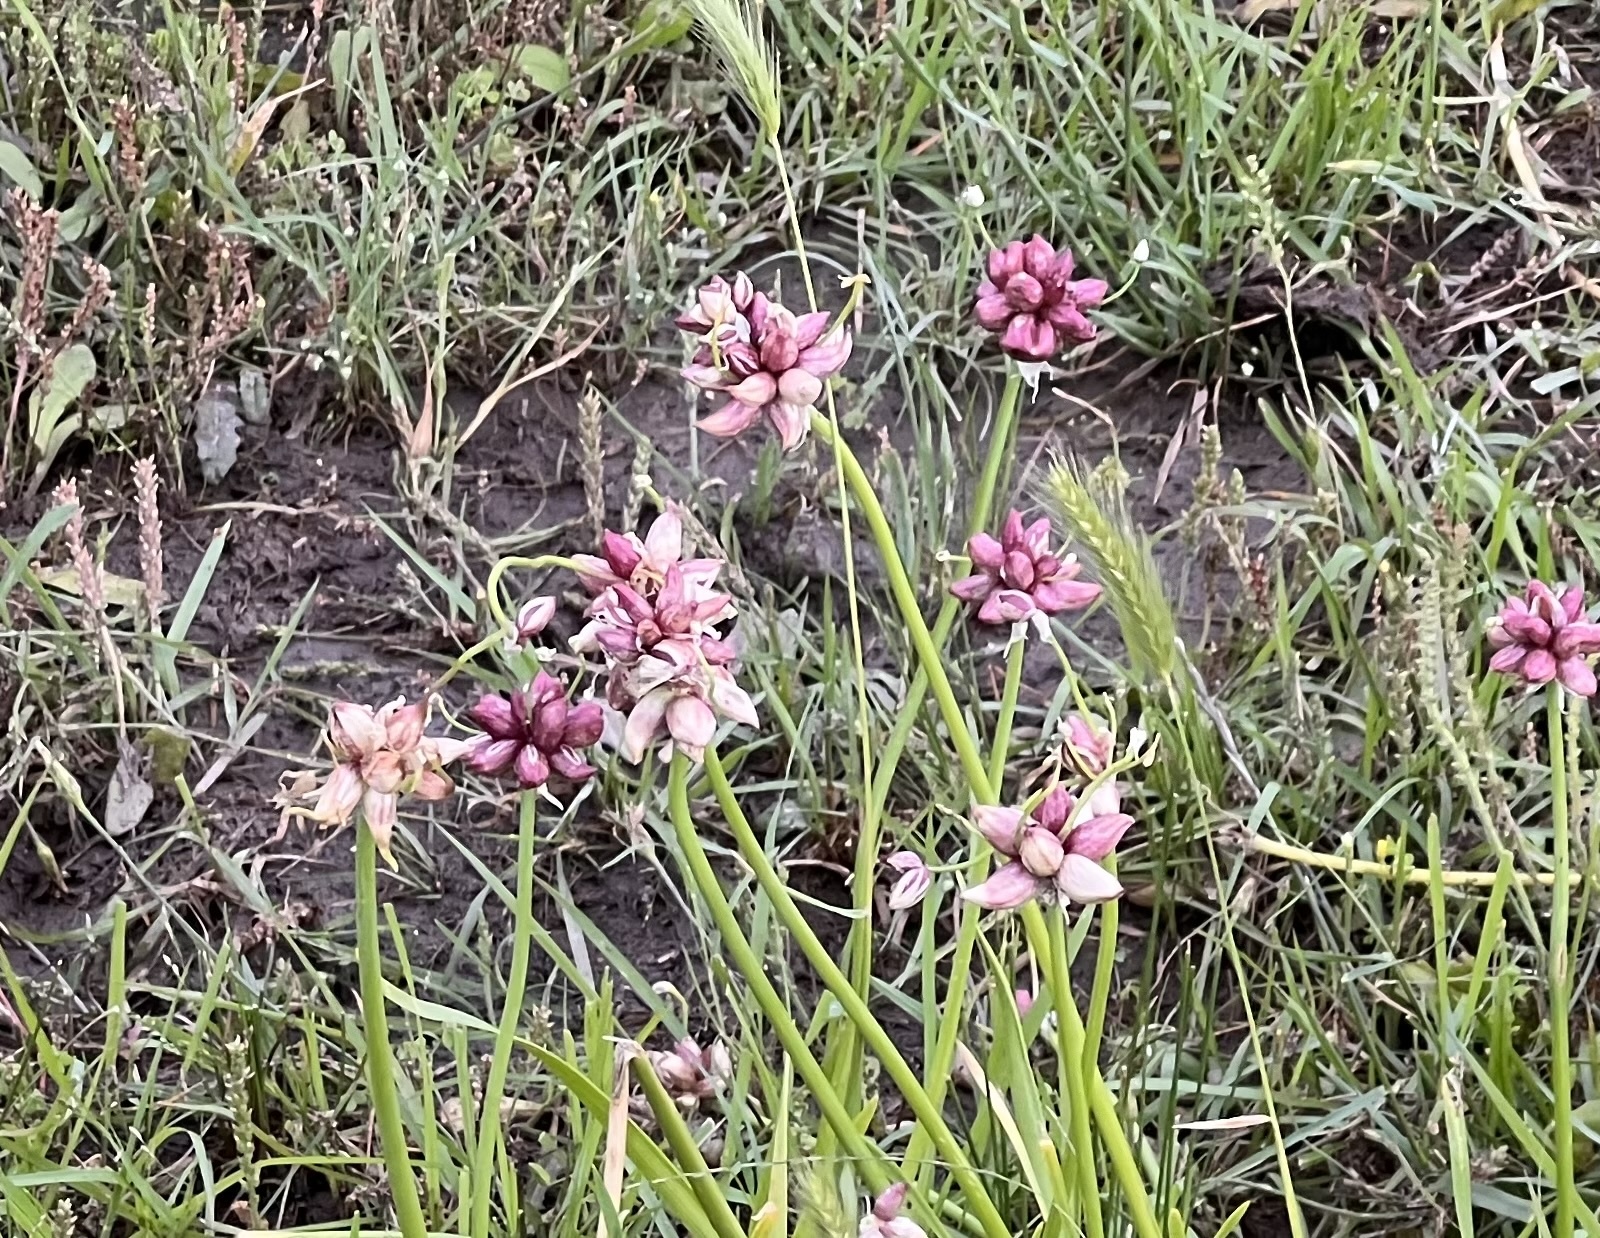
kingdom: Plantae
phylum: Tracheophyta
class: Liliopsida
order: Asparagales
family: Amaryllidaceae
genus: Allium
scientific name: Allium canadense
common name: Meadow garlic
